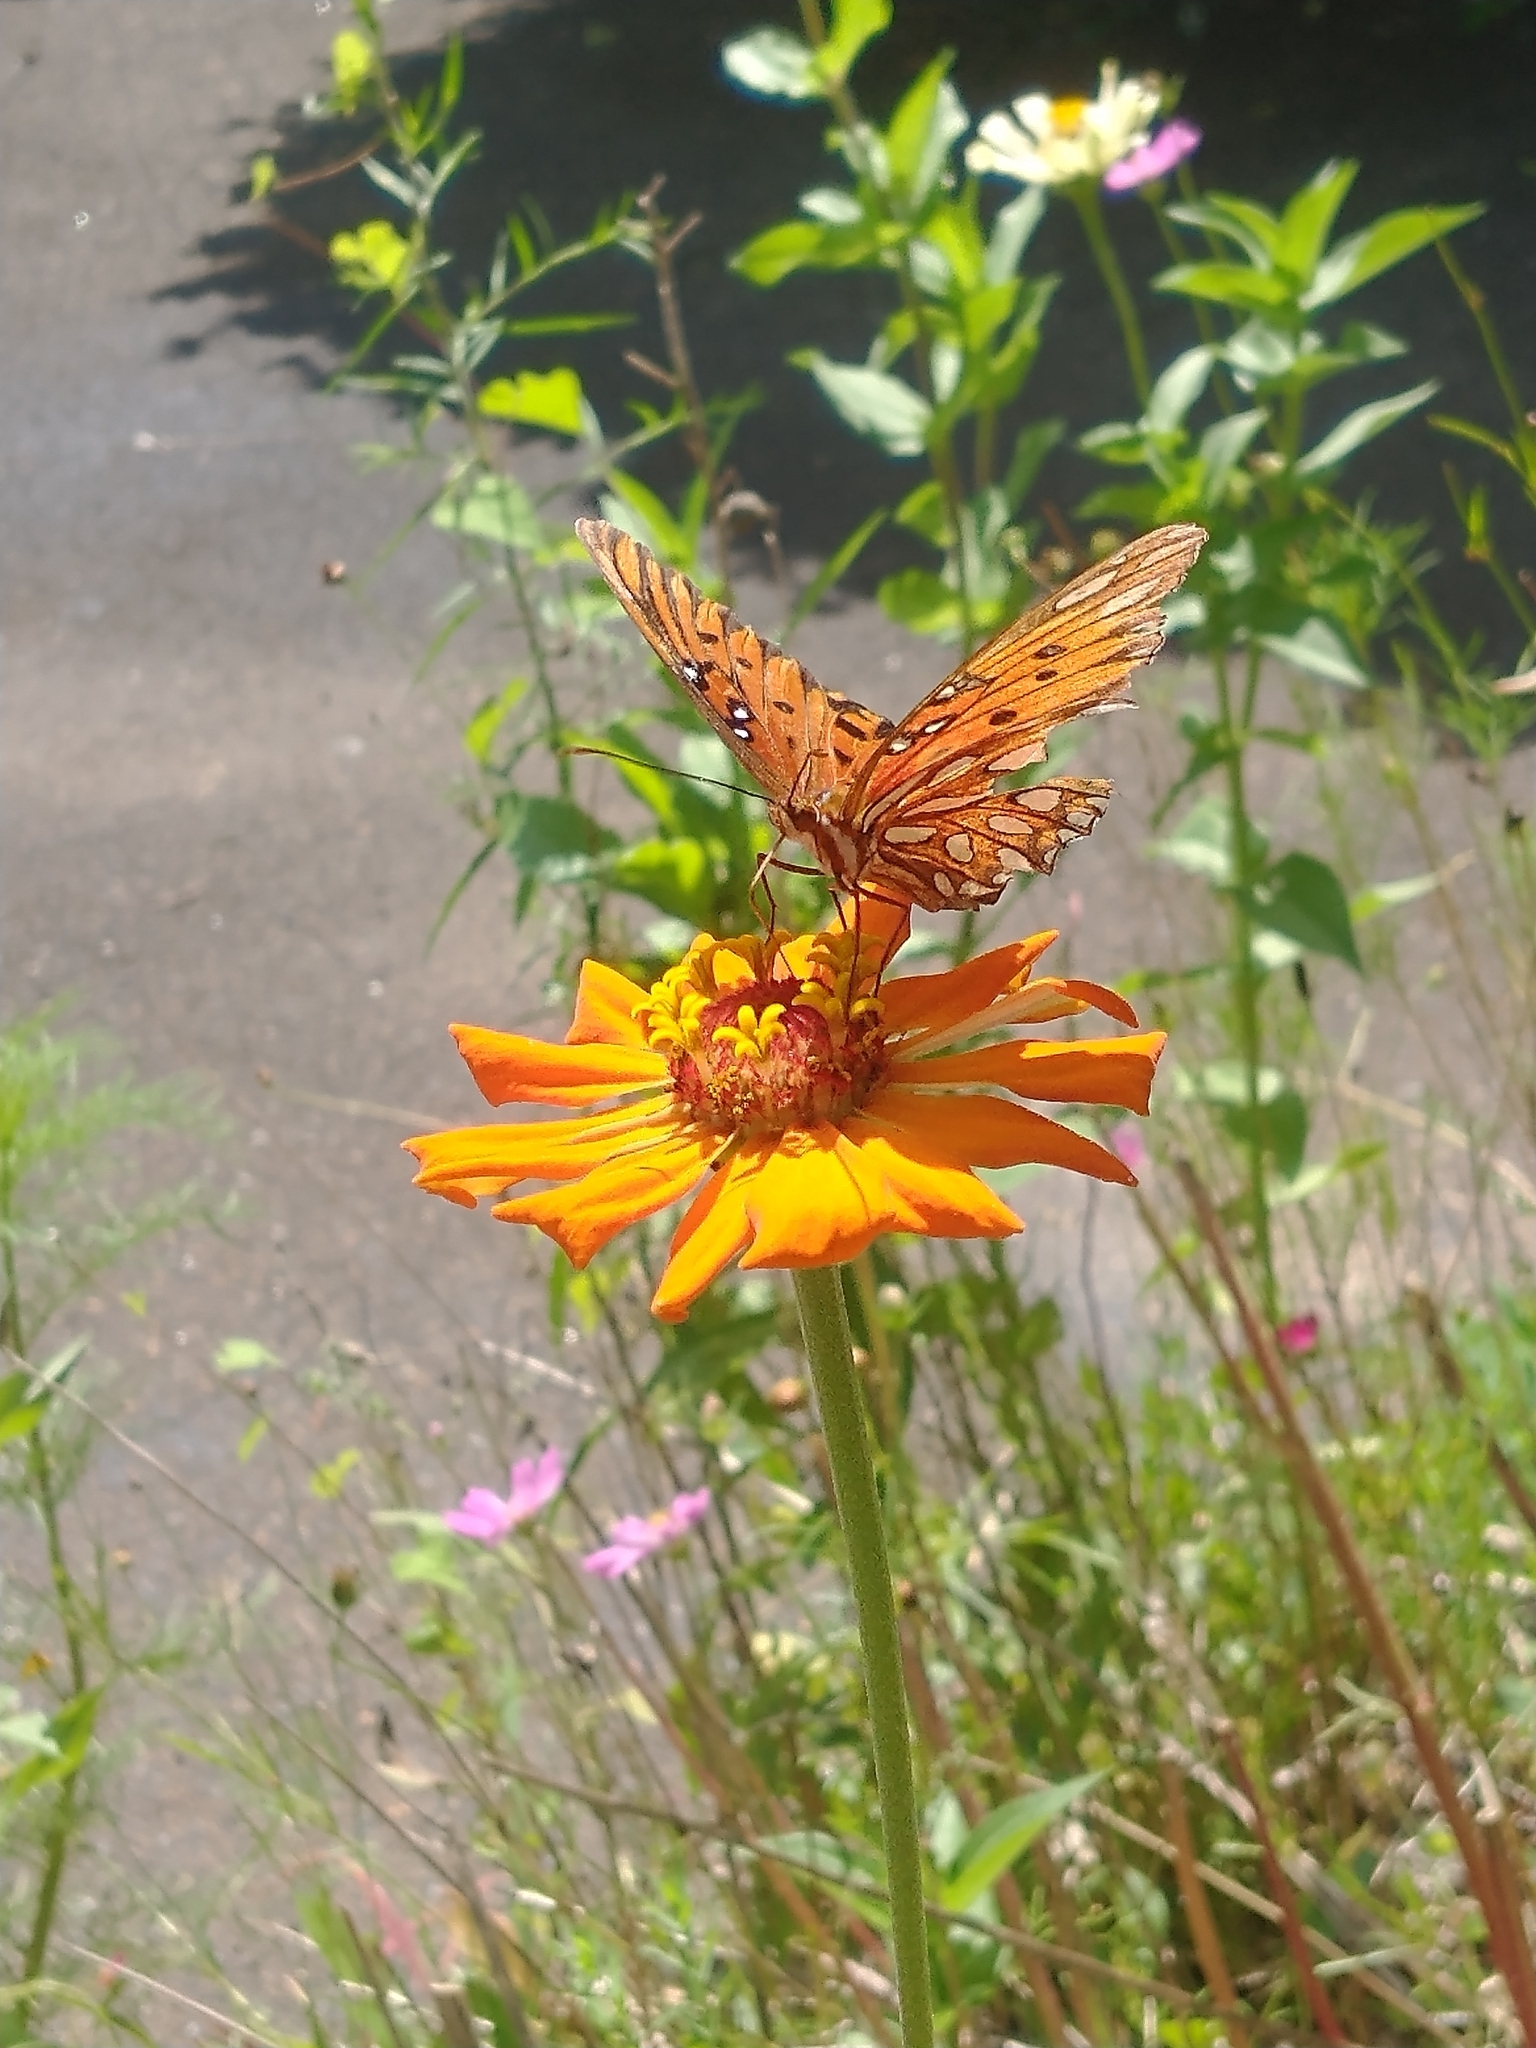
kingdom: Animalia
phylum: Arthropoda
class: Insecta
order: Lepidoptera
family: Nymphalidae
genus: Dione
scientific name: Dione vanillae
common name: Gulf fritillary
